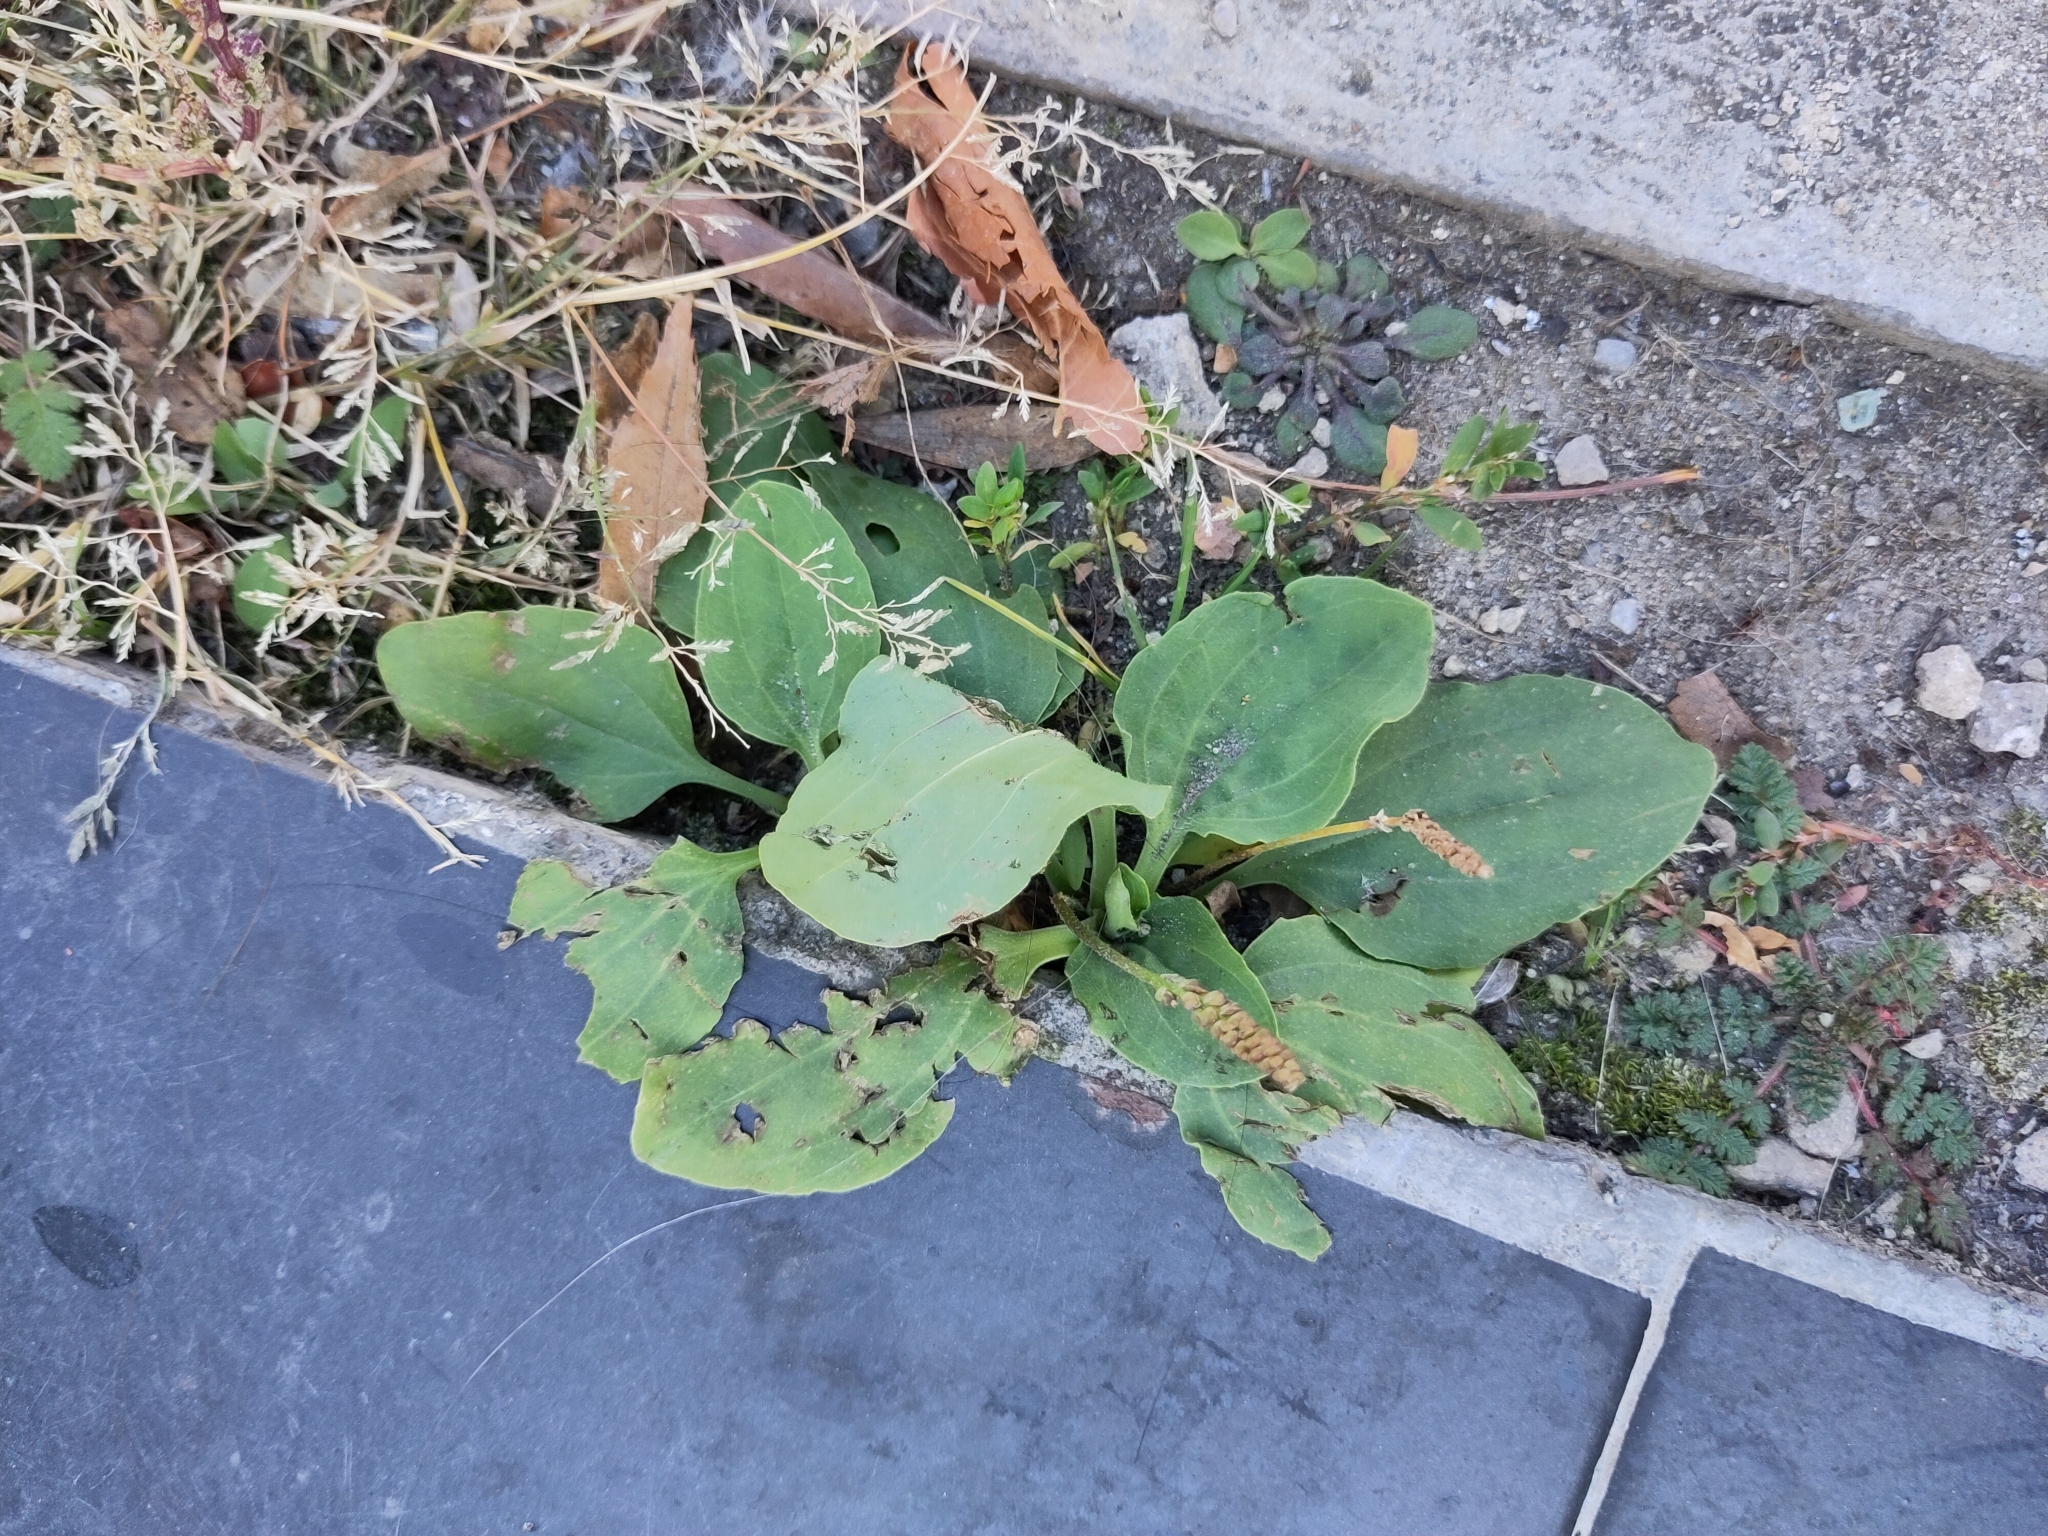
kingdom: Plantae
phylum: Tracheophyta
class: Magnoliopsida
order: Lamiales
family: Plantaginaceae
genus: Plantago
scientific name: Plantago major
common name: Common plantain
